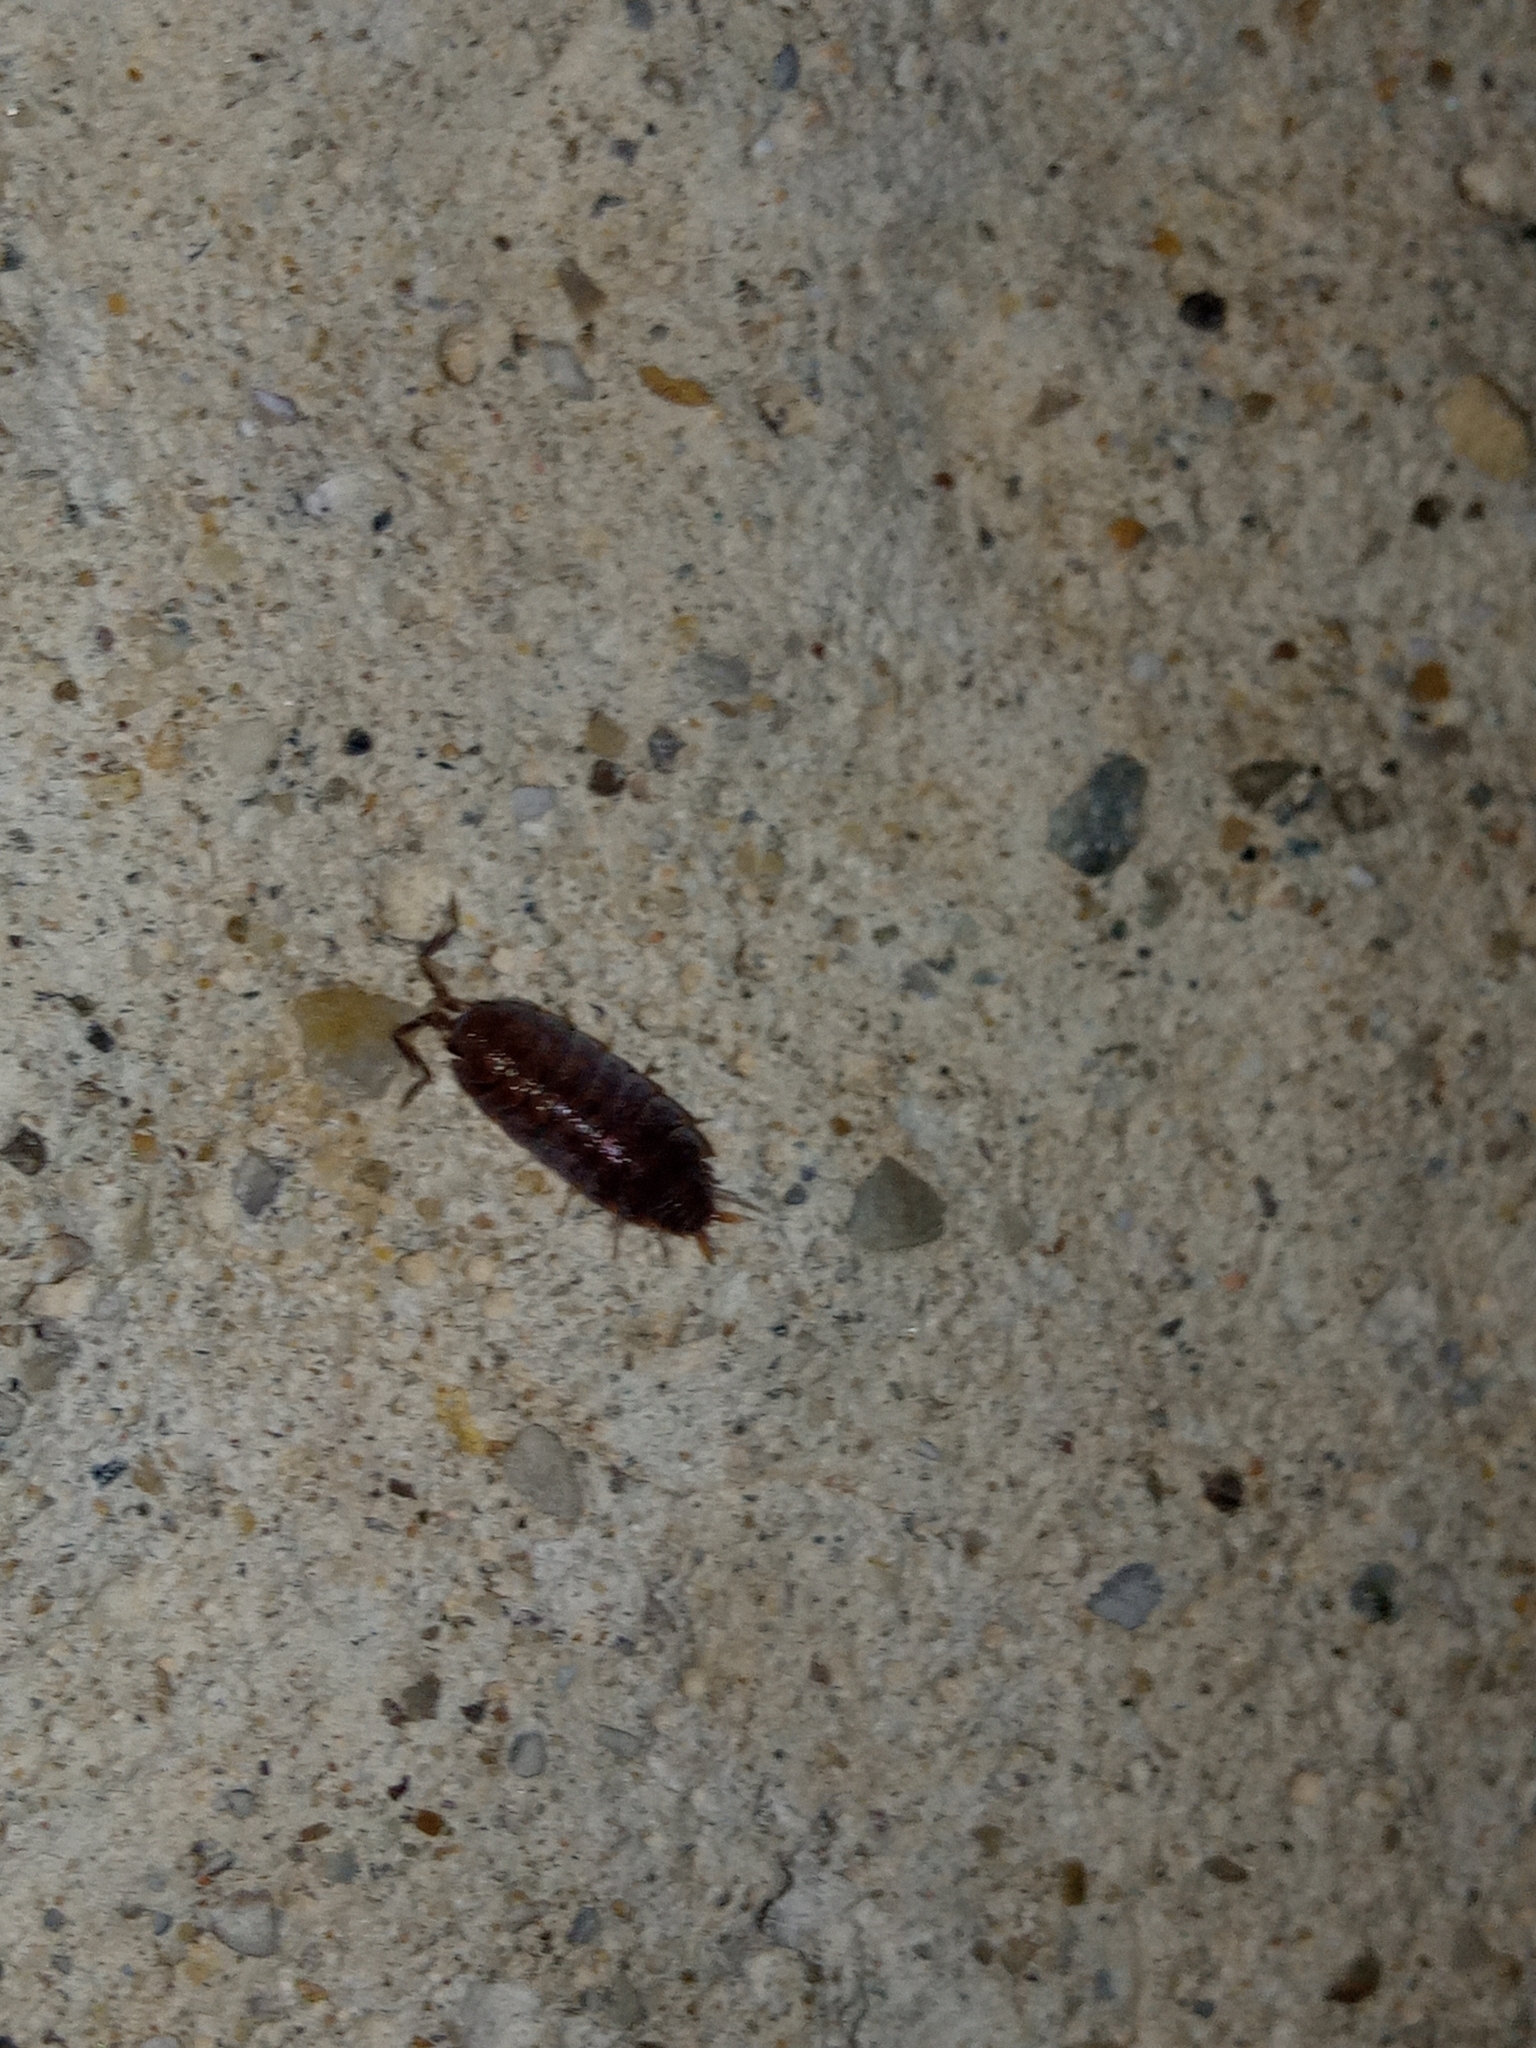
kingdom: Animalia
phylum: Arthropoda
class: Malacostraca
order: Isopoda
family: Porcellionidae
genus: Porcellionides
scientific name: Porcellionides pruinosus
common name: Plum woodlouse
